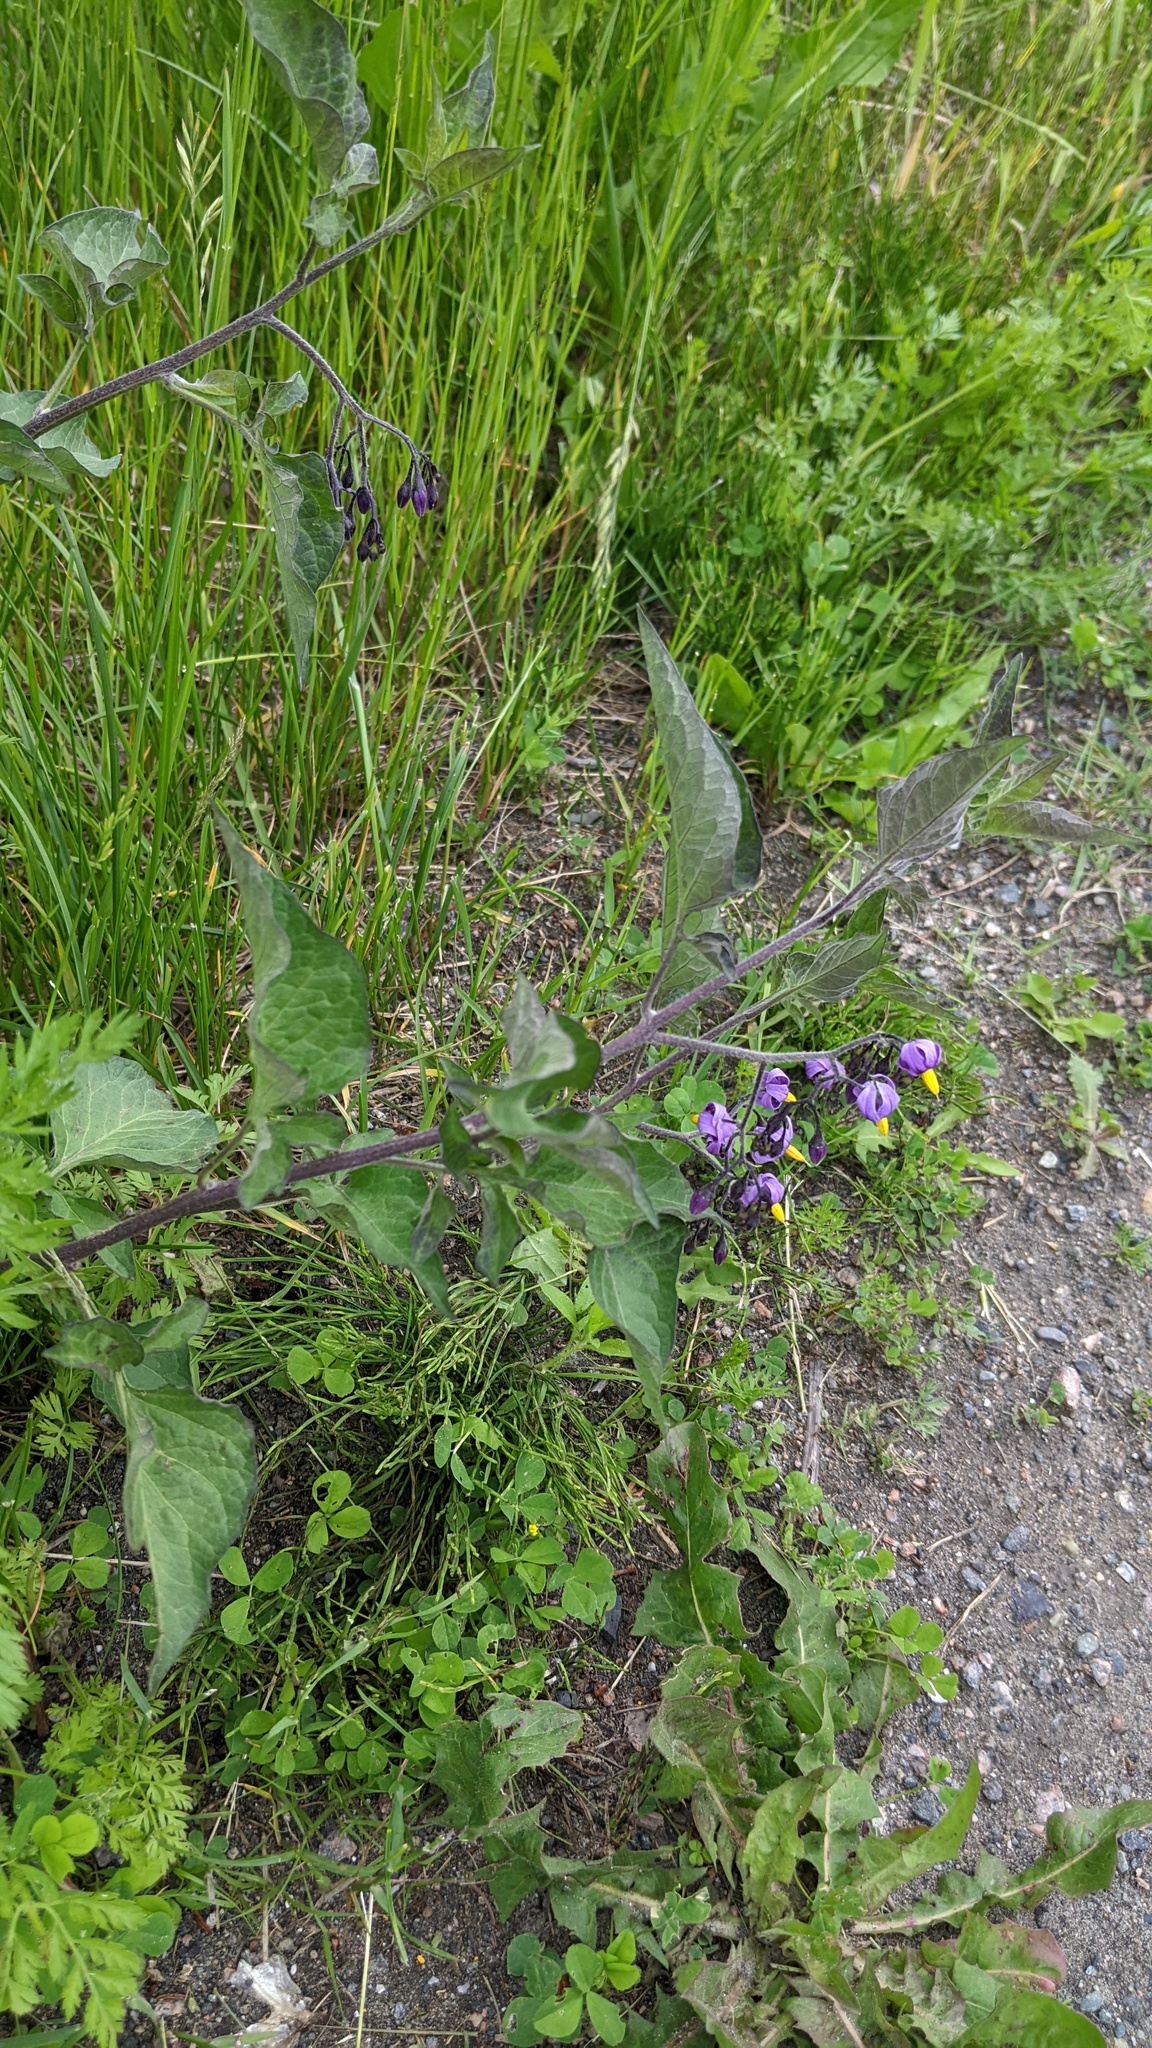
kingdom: Plantae
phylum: Tracheophyta
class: Magnoliopsida
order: Solanales
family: Solanaceae
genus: Solanum
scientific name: Solanum dulcamara
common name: Climbing nightshade
